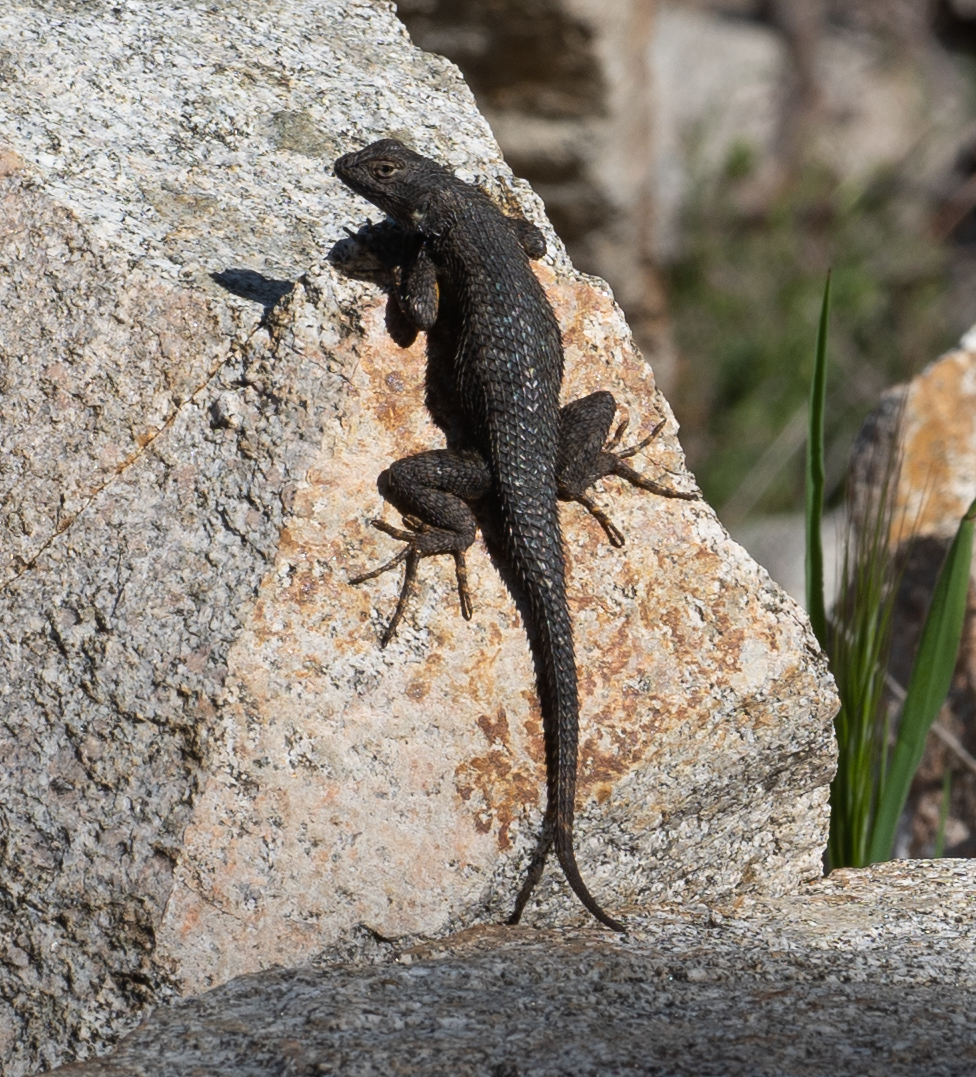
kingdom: Animalia
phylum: Chordata
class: Squamata
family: Phrynosomatidae
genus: Sceloporus
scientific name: Sceloporus occidentalis
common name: Western fence lizard
